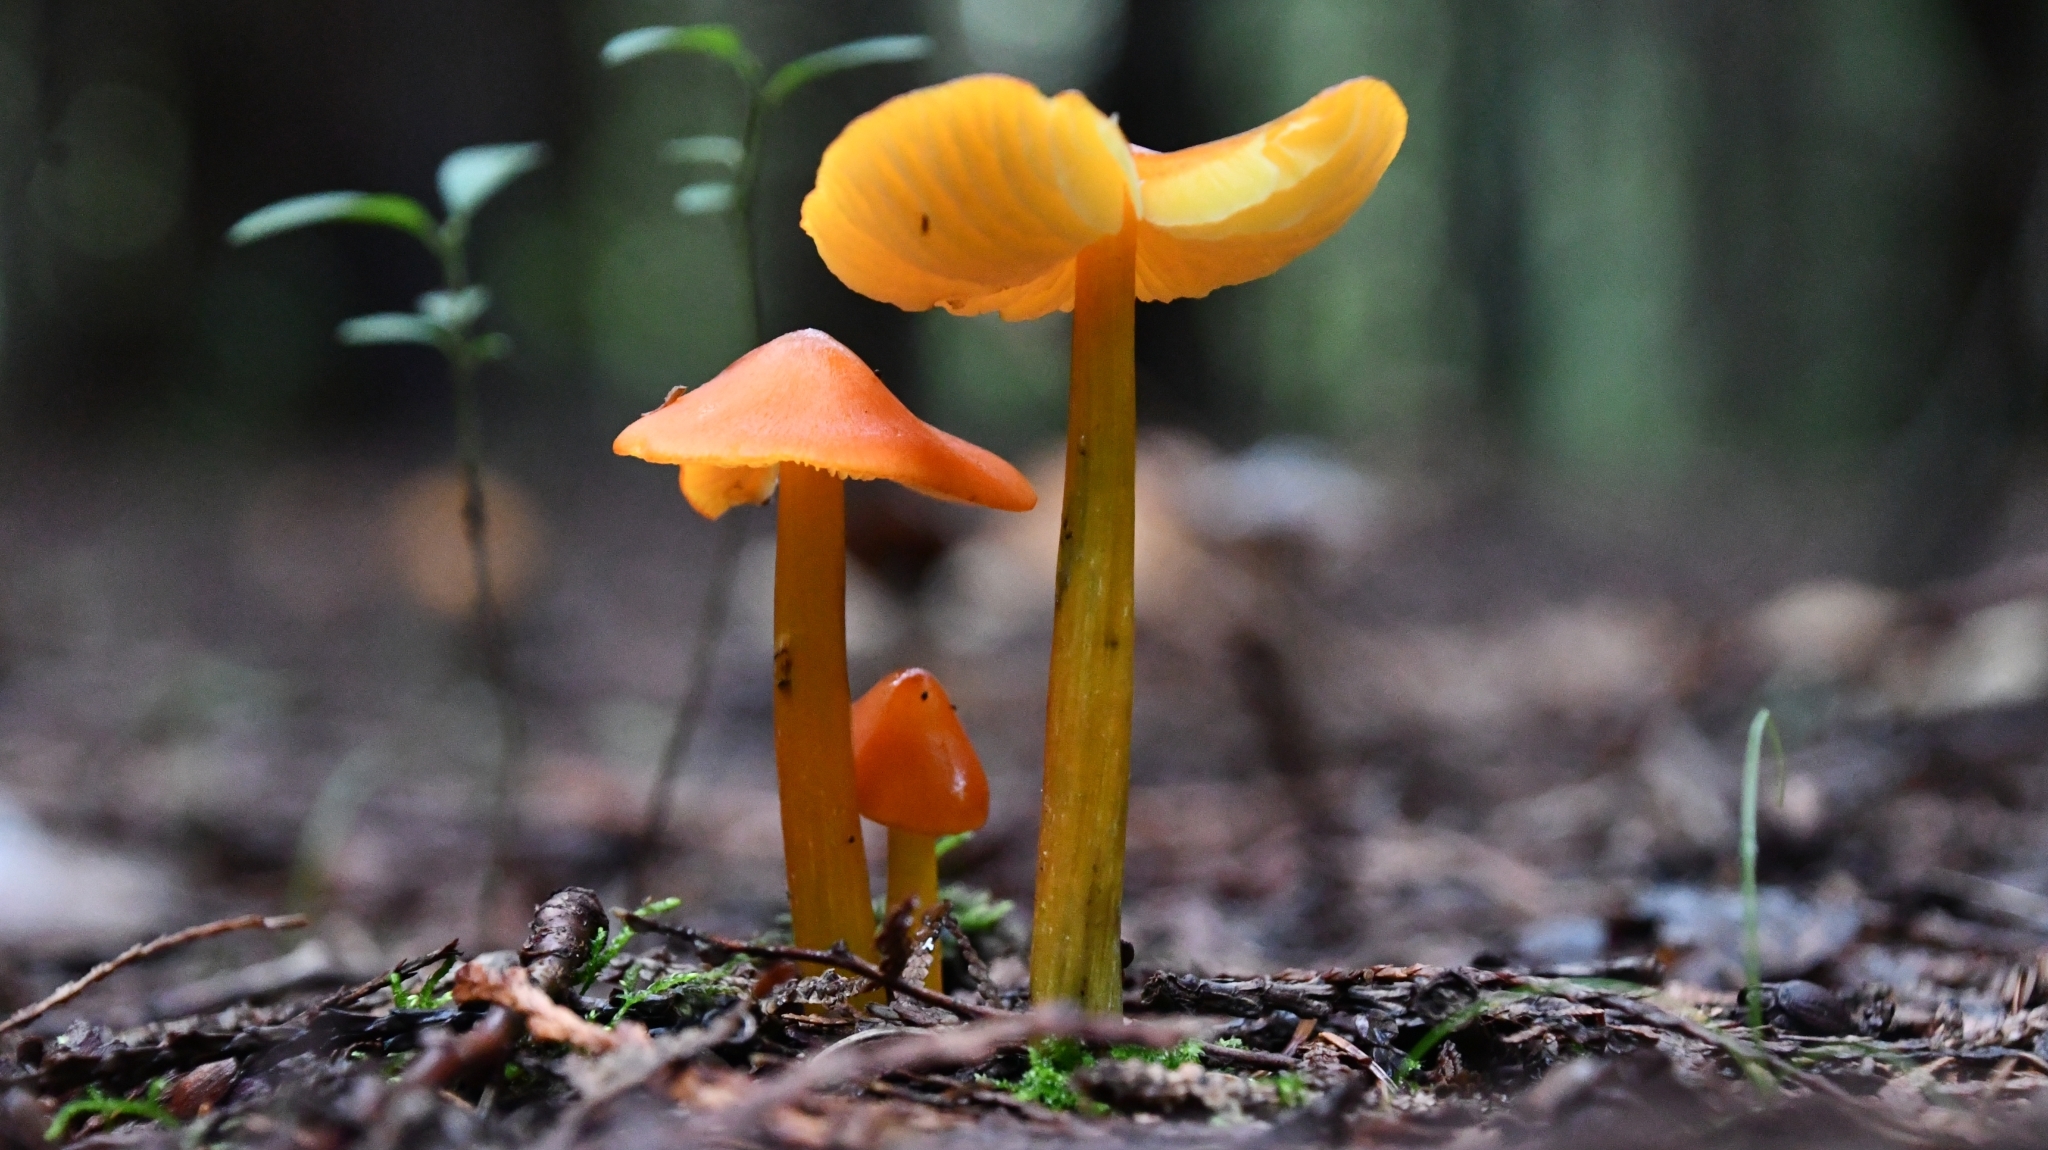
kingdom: Fungi
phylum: Basidiomycota
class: Agaricomycetes
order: Agaricales
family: Hygrophoraceae
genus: Hygrocybe
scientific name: Hygrocybe conica
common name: Blackening wax-cap
